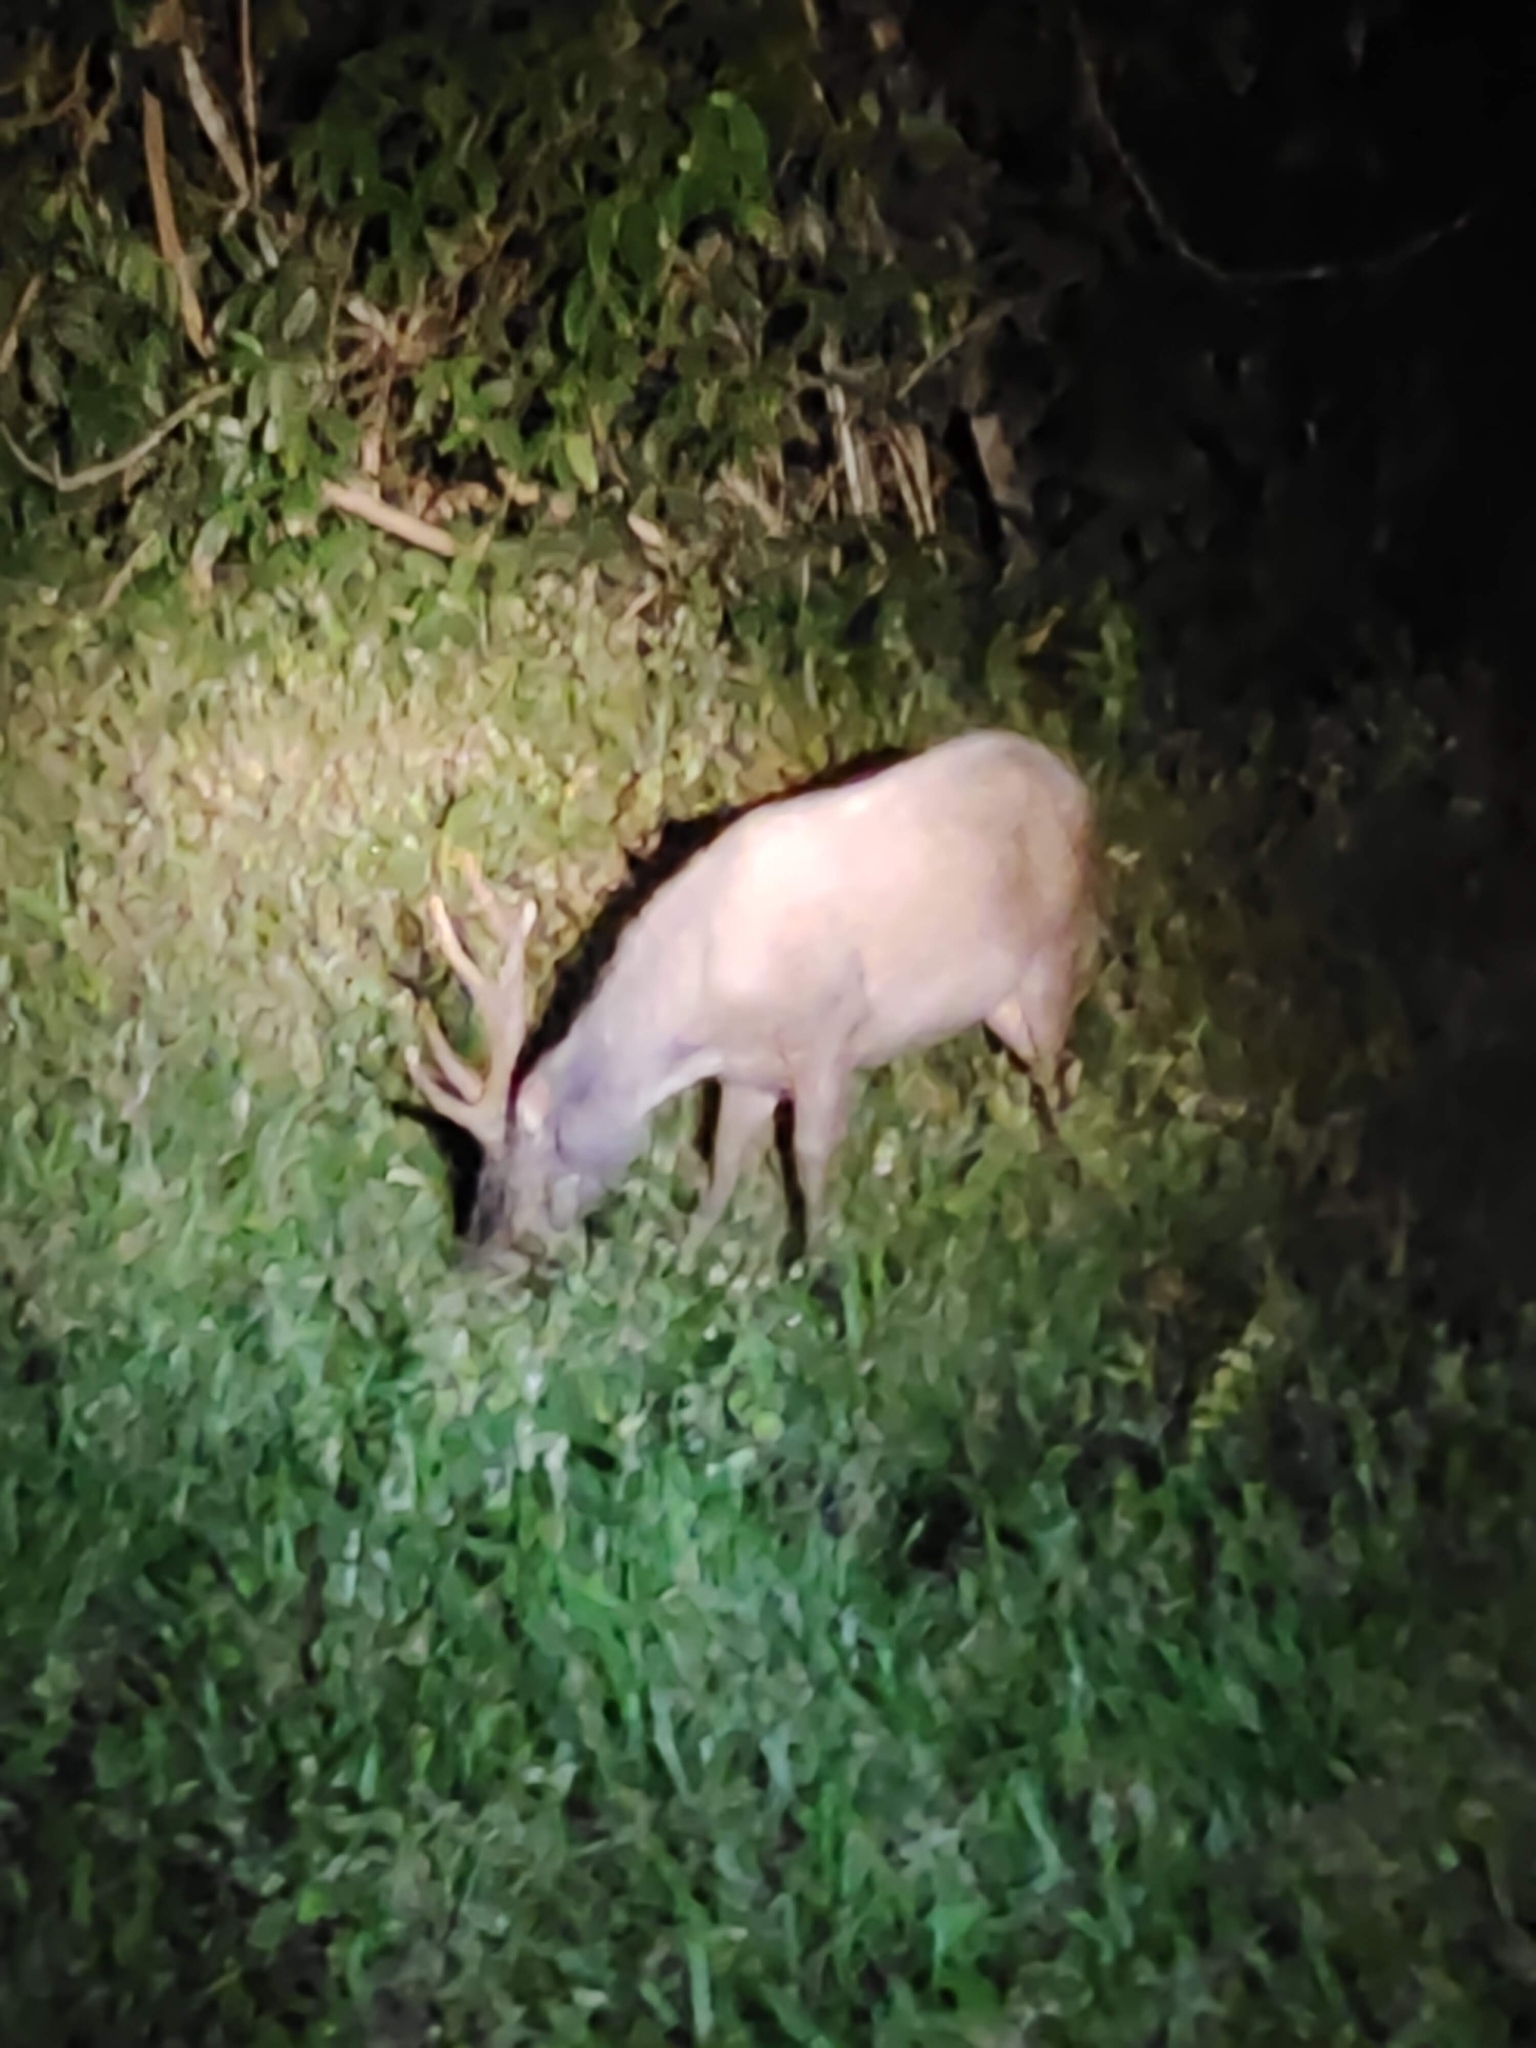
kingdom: Animalia
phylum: Chordata
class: Mammalia
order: Artiodactyla
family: Cervidae
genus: Rusa
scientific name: Rusa unicolor
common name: Sambar
